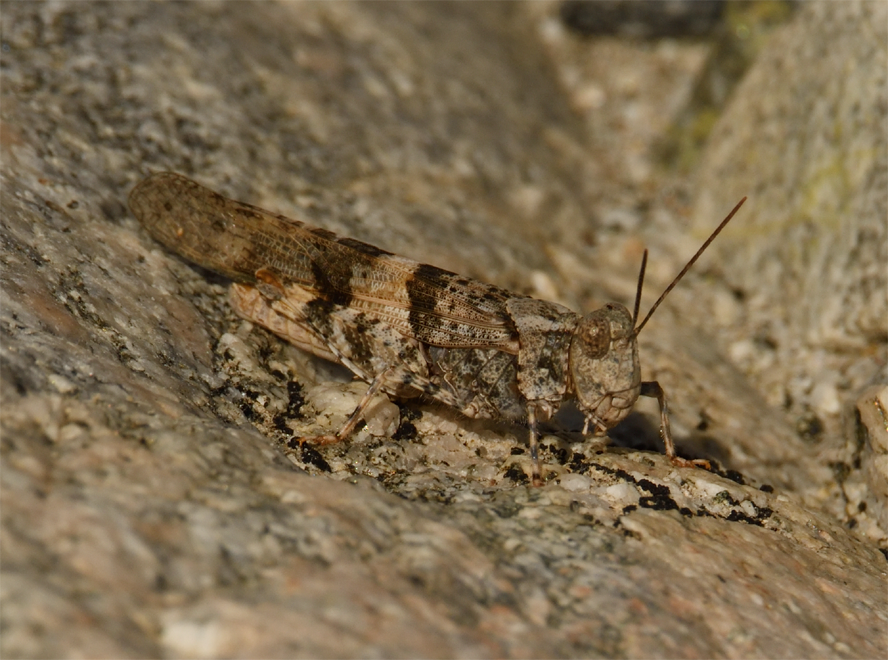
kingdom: Animalia
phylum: Arthropoda
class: Insecta
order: Orthoptera
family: Acrididae
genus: Trimerotropis
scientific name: Trimerotropis pallidipennis
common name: Pallid-winged grasshopper
